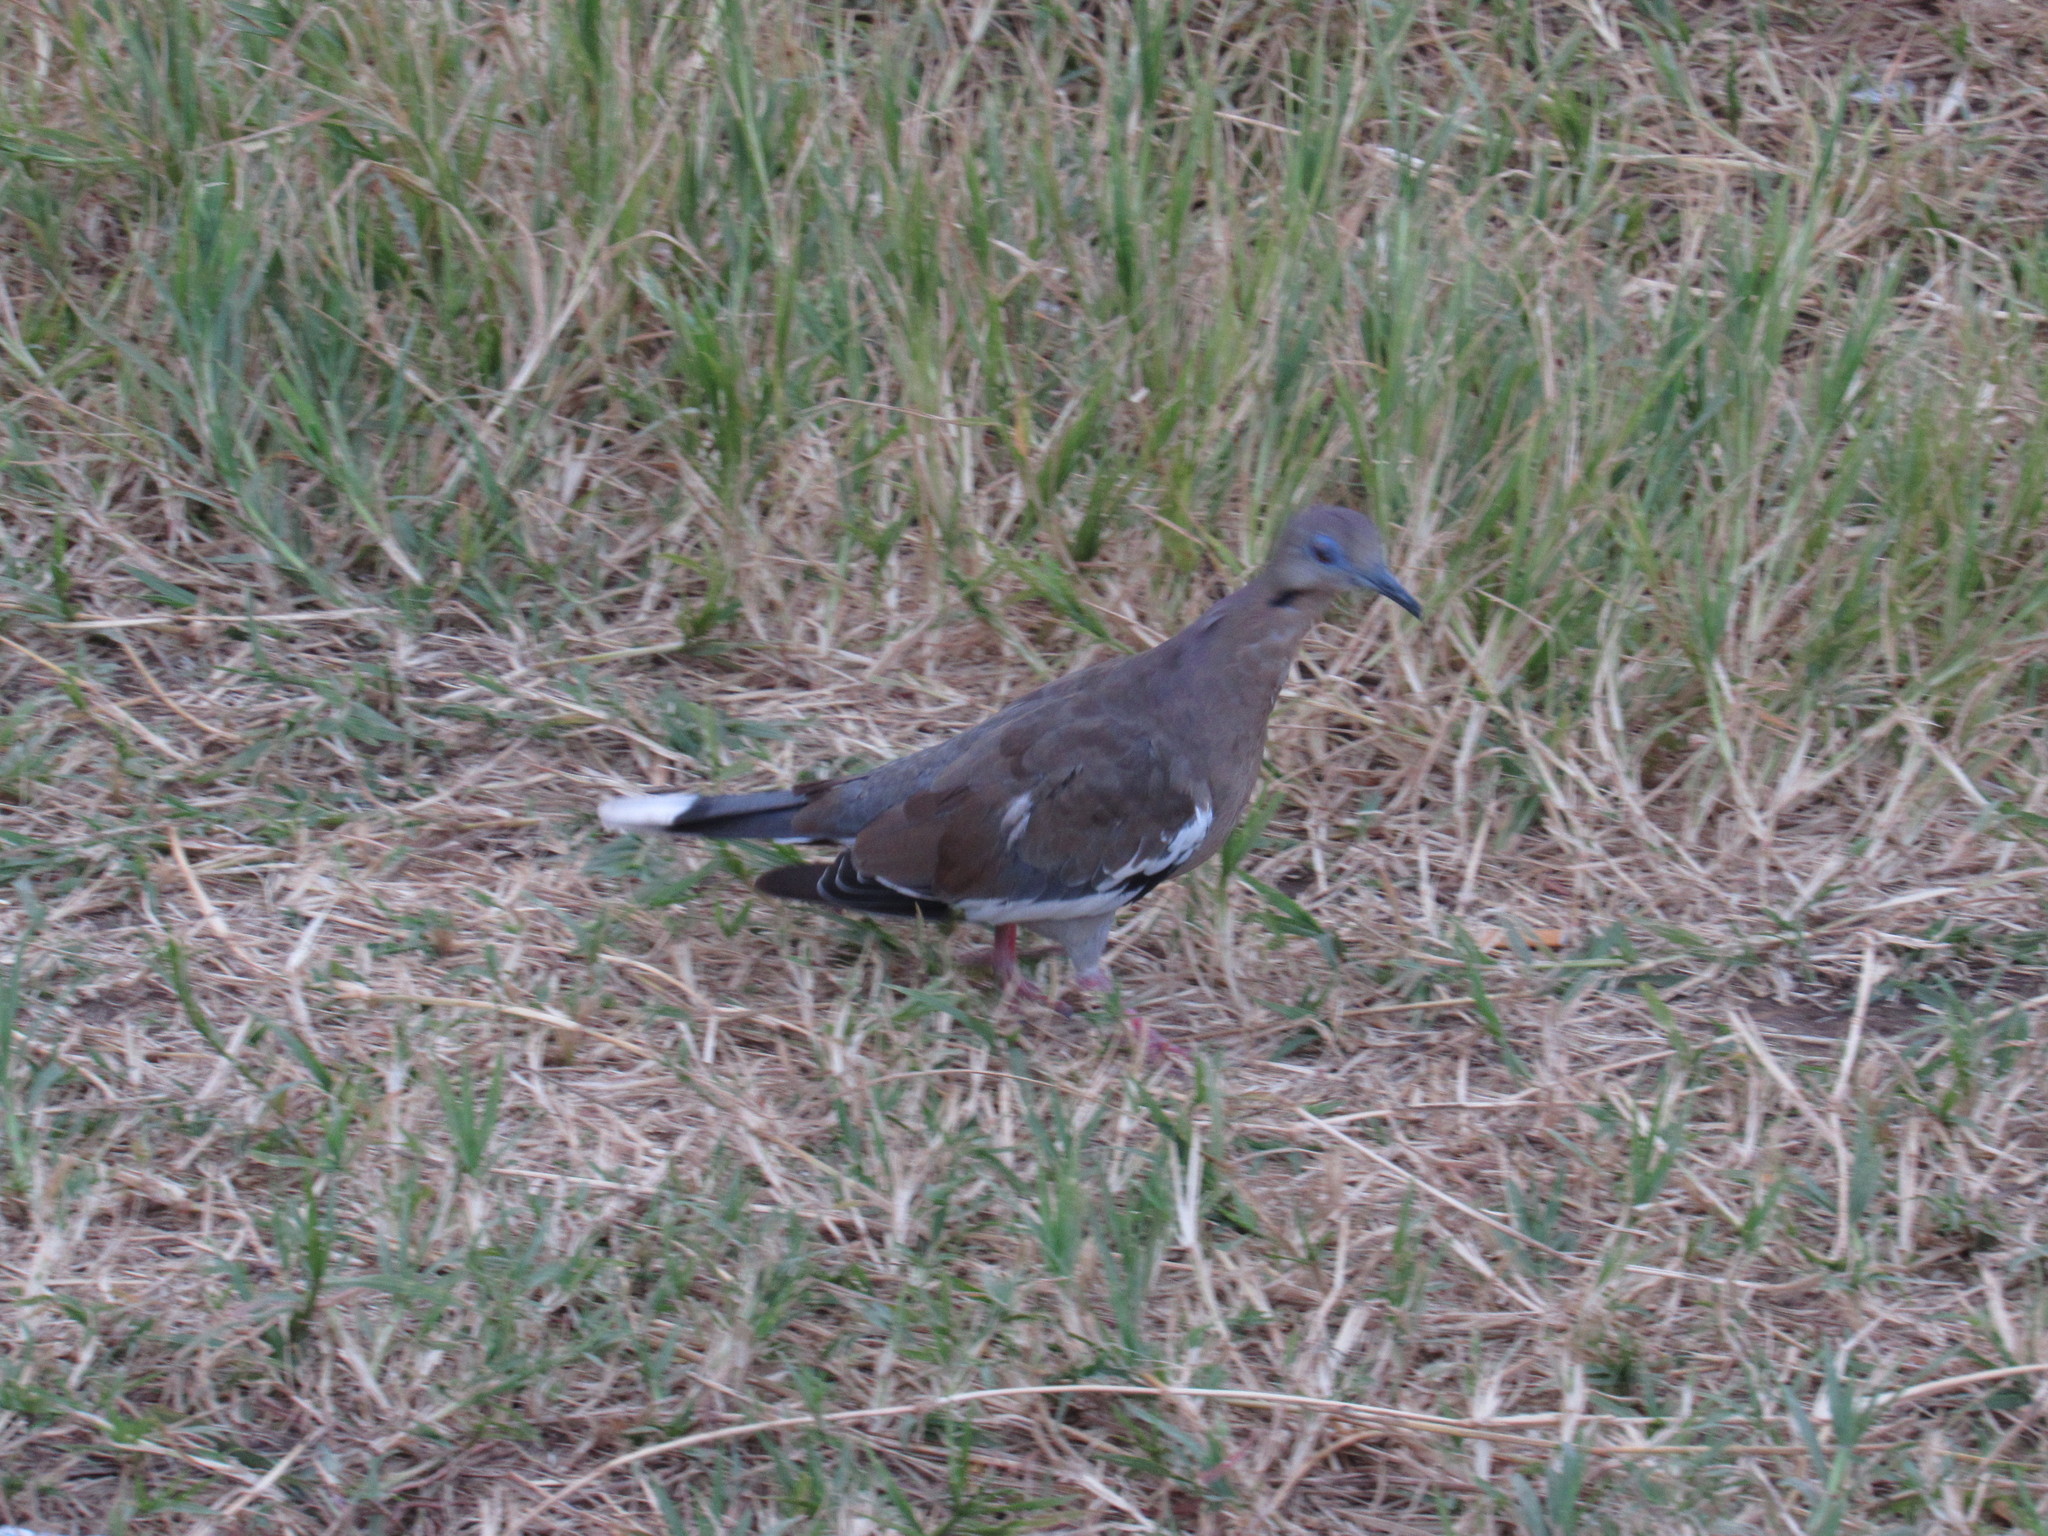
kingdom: Animalia
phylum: Chordata
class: Aves
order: Columbiformes
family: Columbidae
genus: Zenaida
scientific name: Zenaida asiatica
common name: White-winged dove
